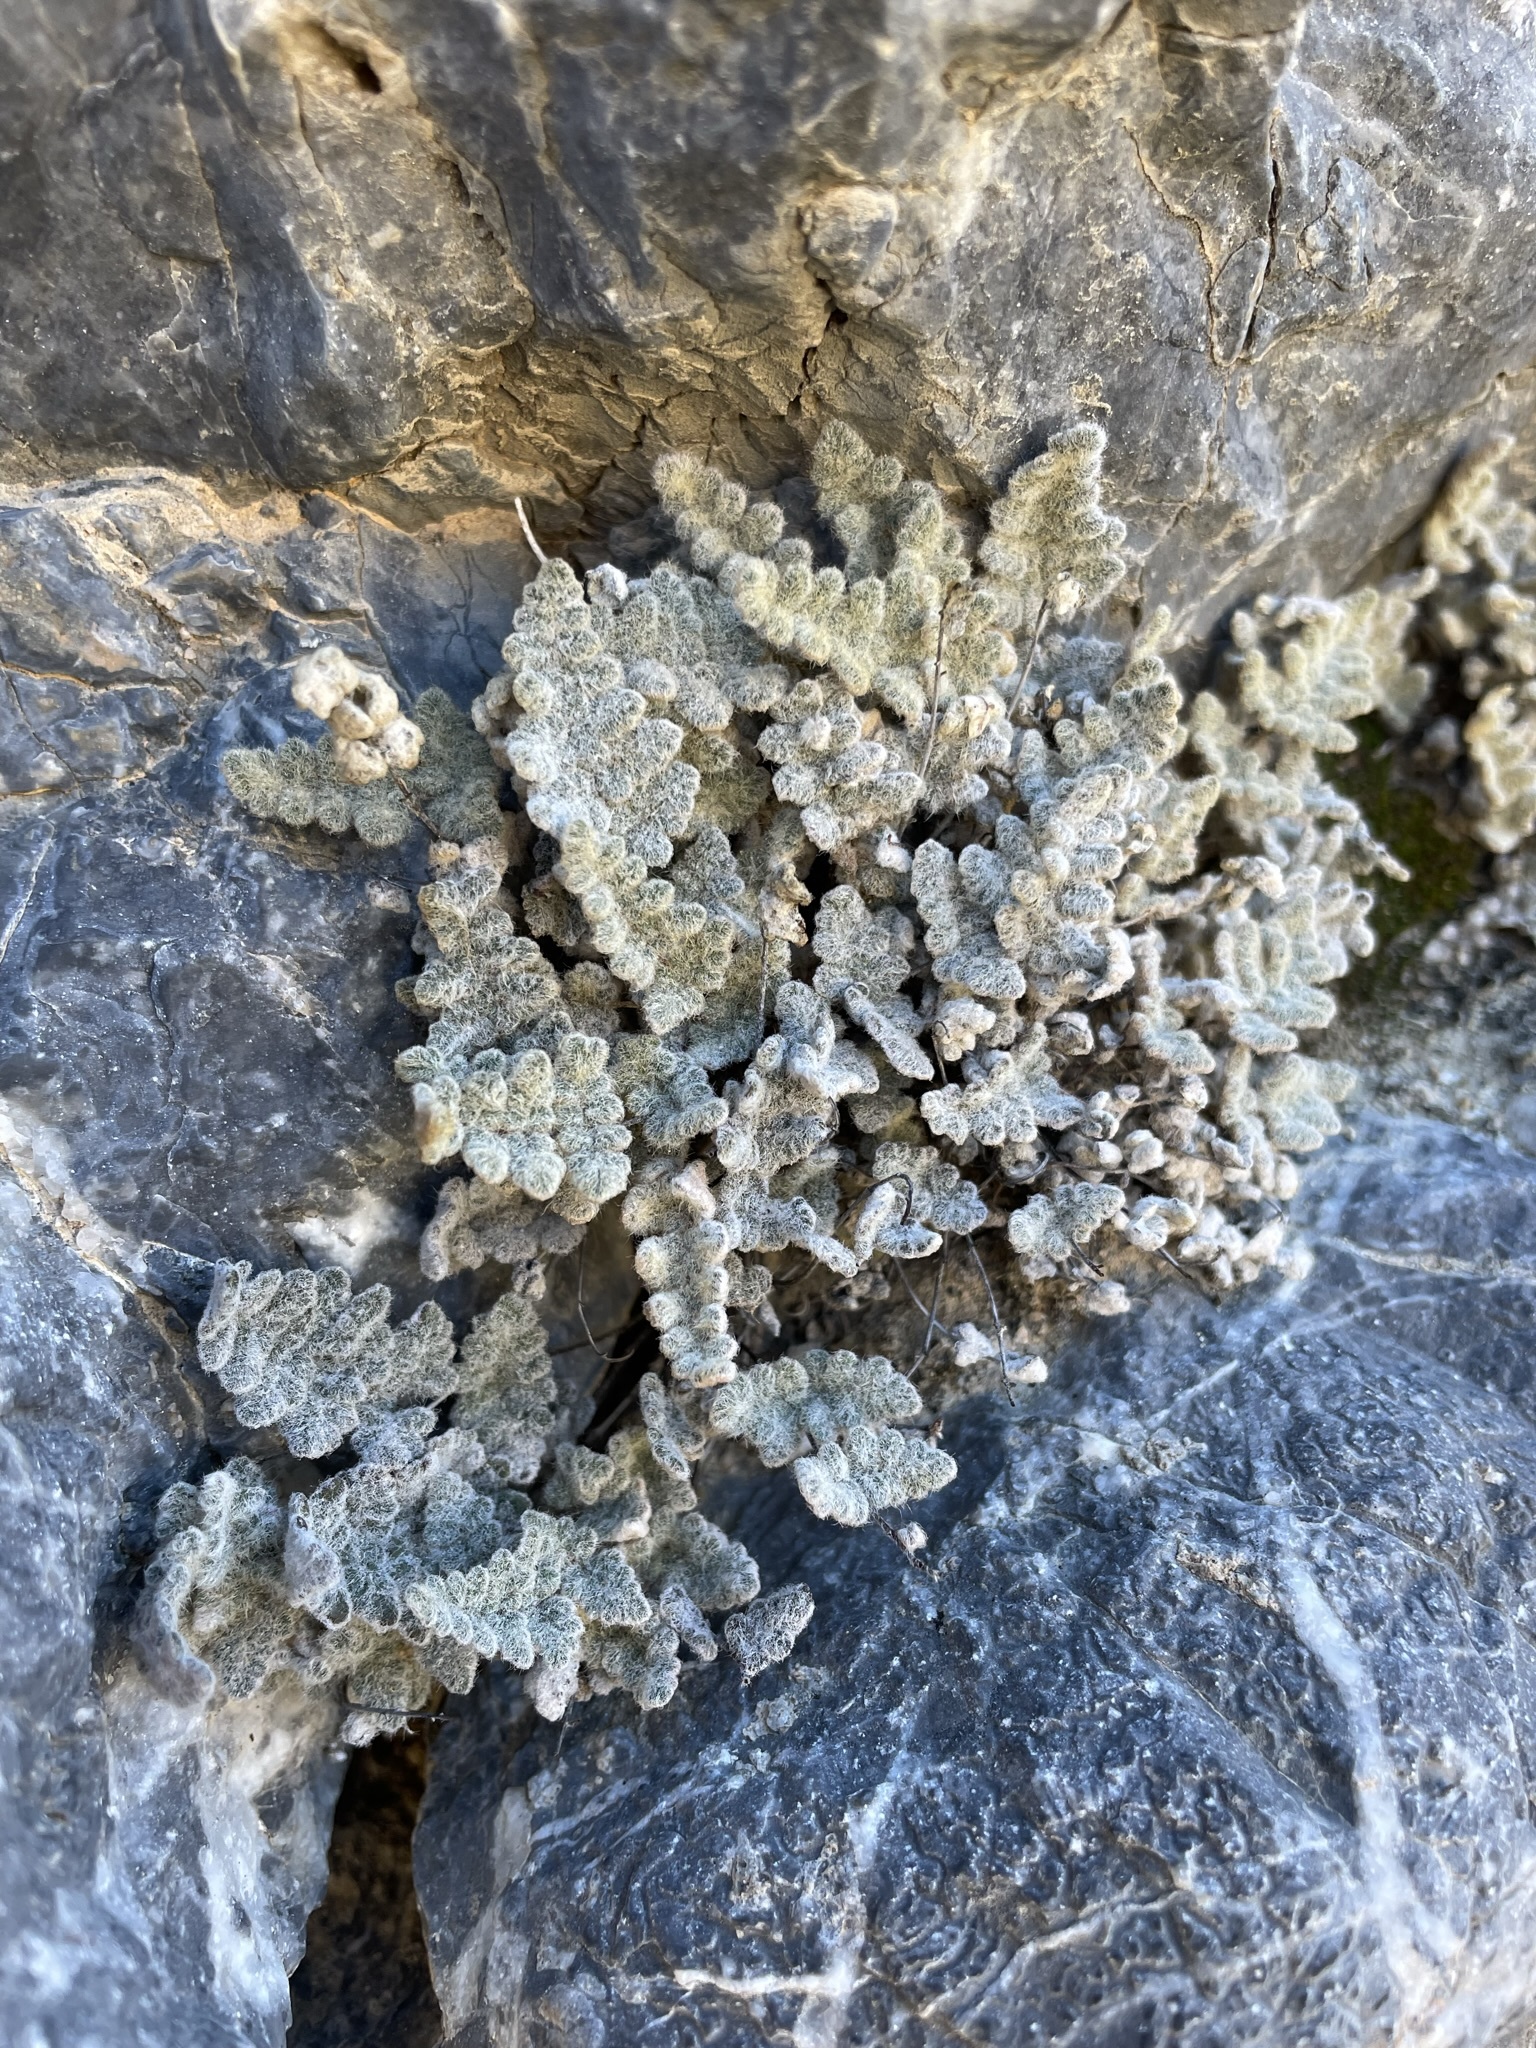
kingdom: Plantae
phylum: Tracheophyta
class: Polypodiopsida
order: Polypodiales
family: Pteridaceae
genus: Myriopteris
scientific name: Myriopteris parryi
